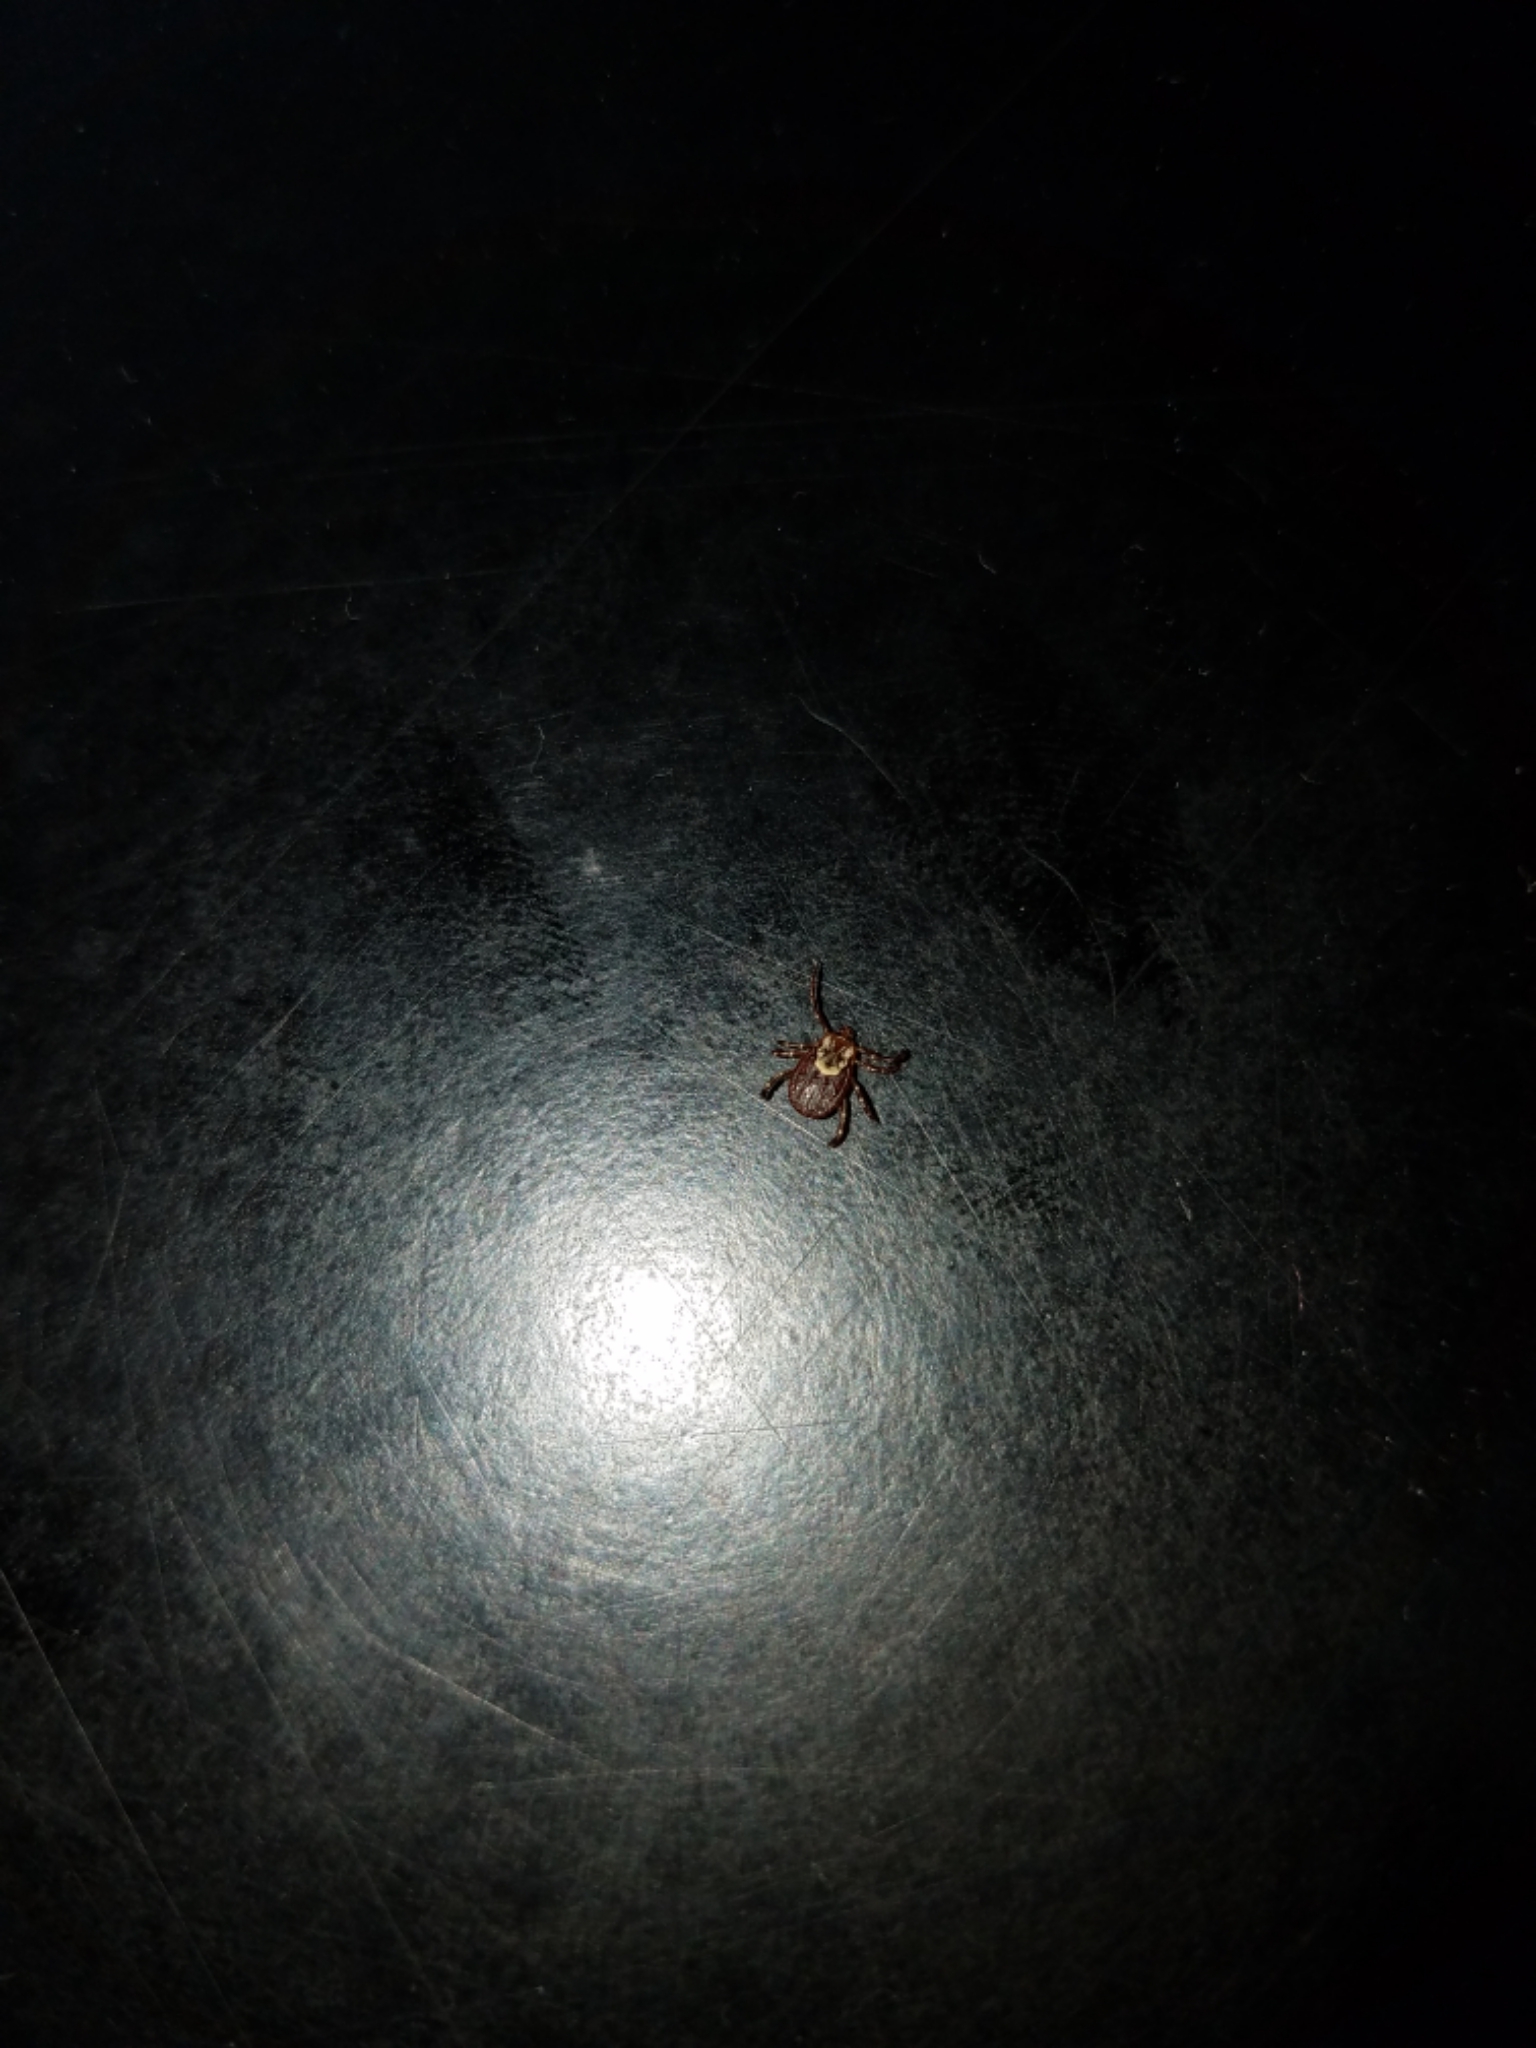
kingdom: Animalia
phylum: Arthropoda
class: Arachnida
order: Ixodida
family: Ixodidae
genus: Dermacentor
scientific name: Dermacentor variabilis
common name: American dog tick
